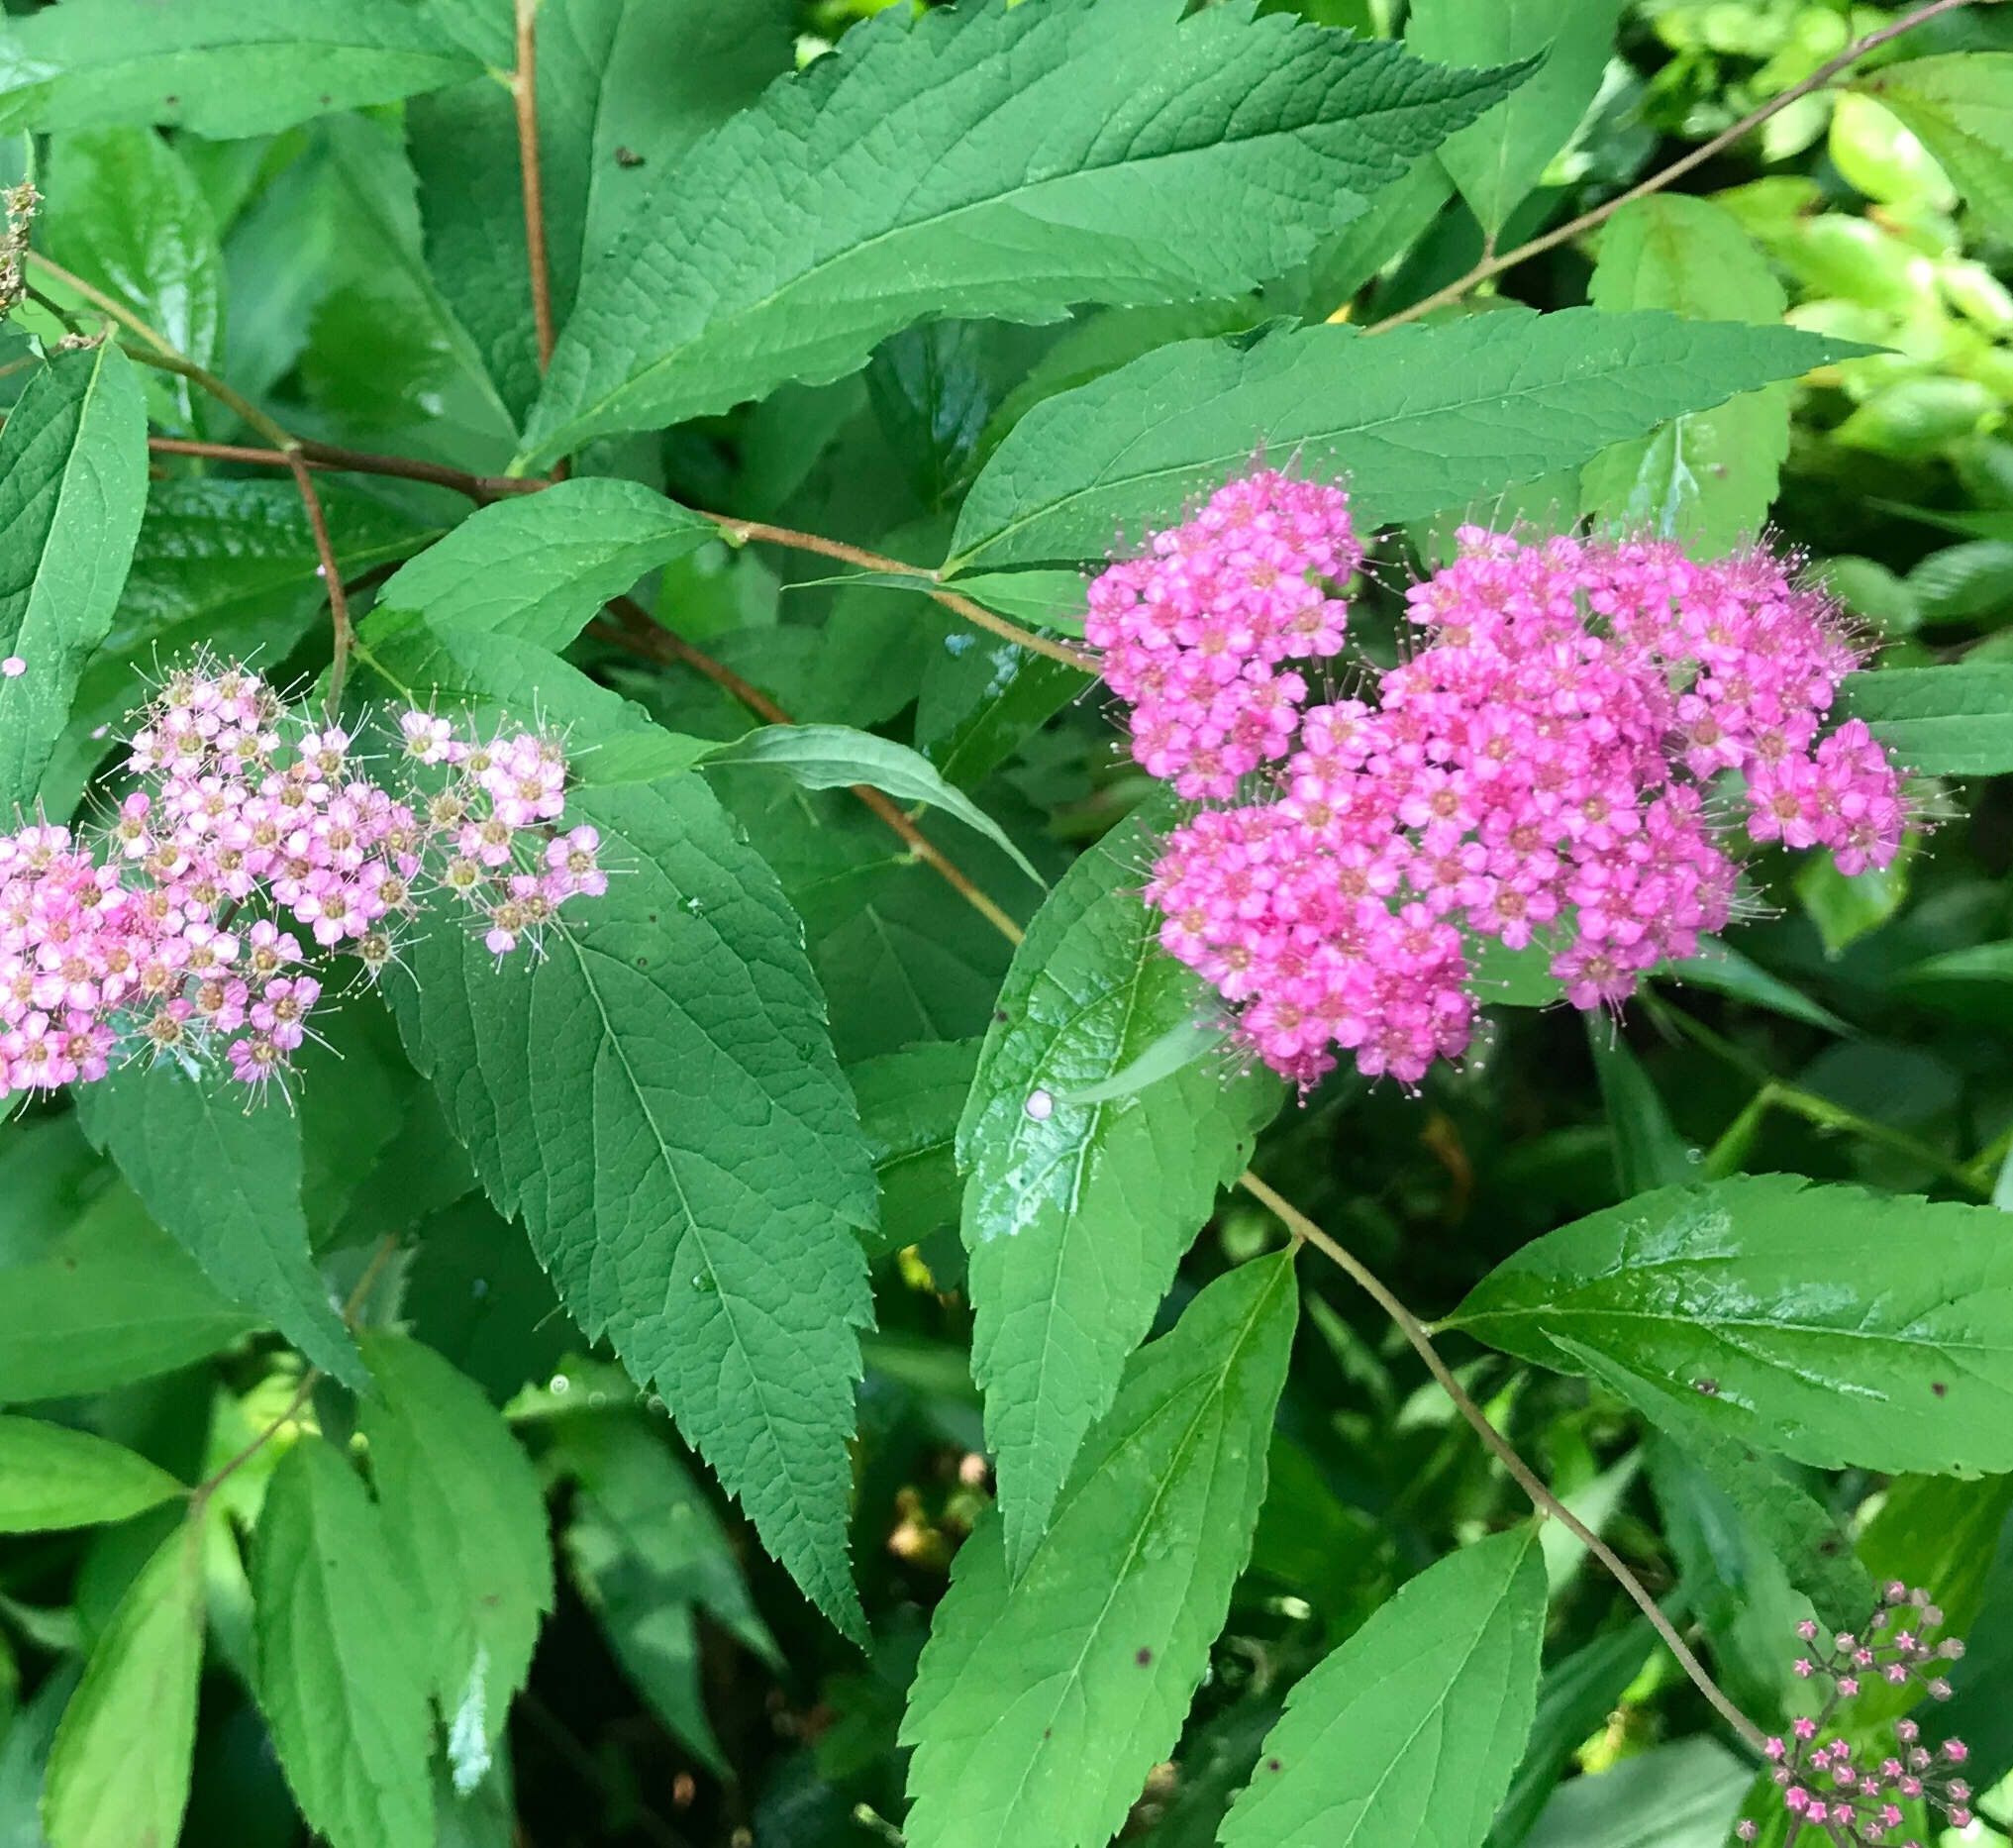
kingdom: Plantae
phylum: Tracheophyta
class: Magnoliopsida
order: Rosales
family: Rosaceae
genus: Spiraea
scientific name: Spiraea japonica
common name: Japanese spiraea
